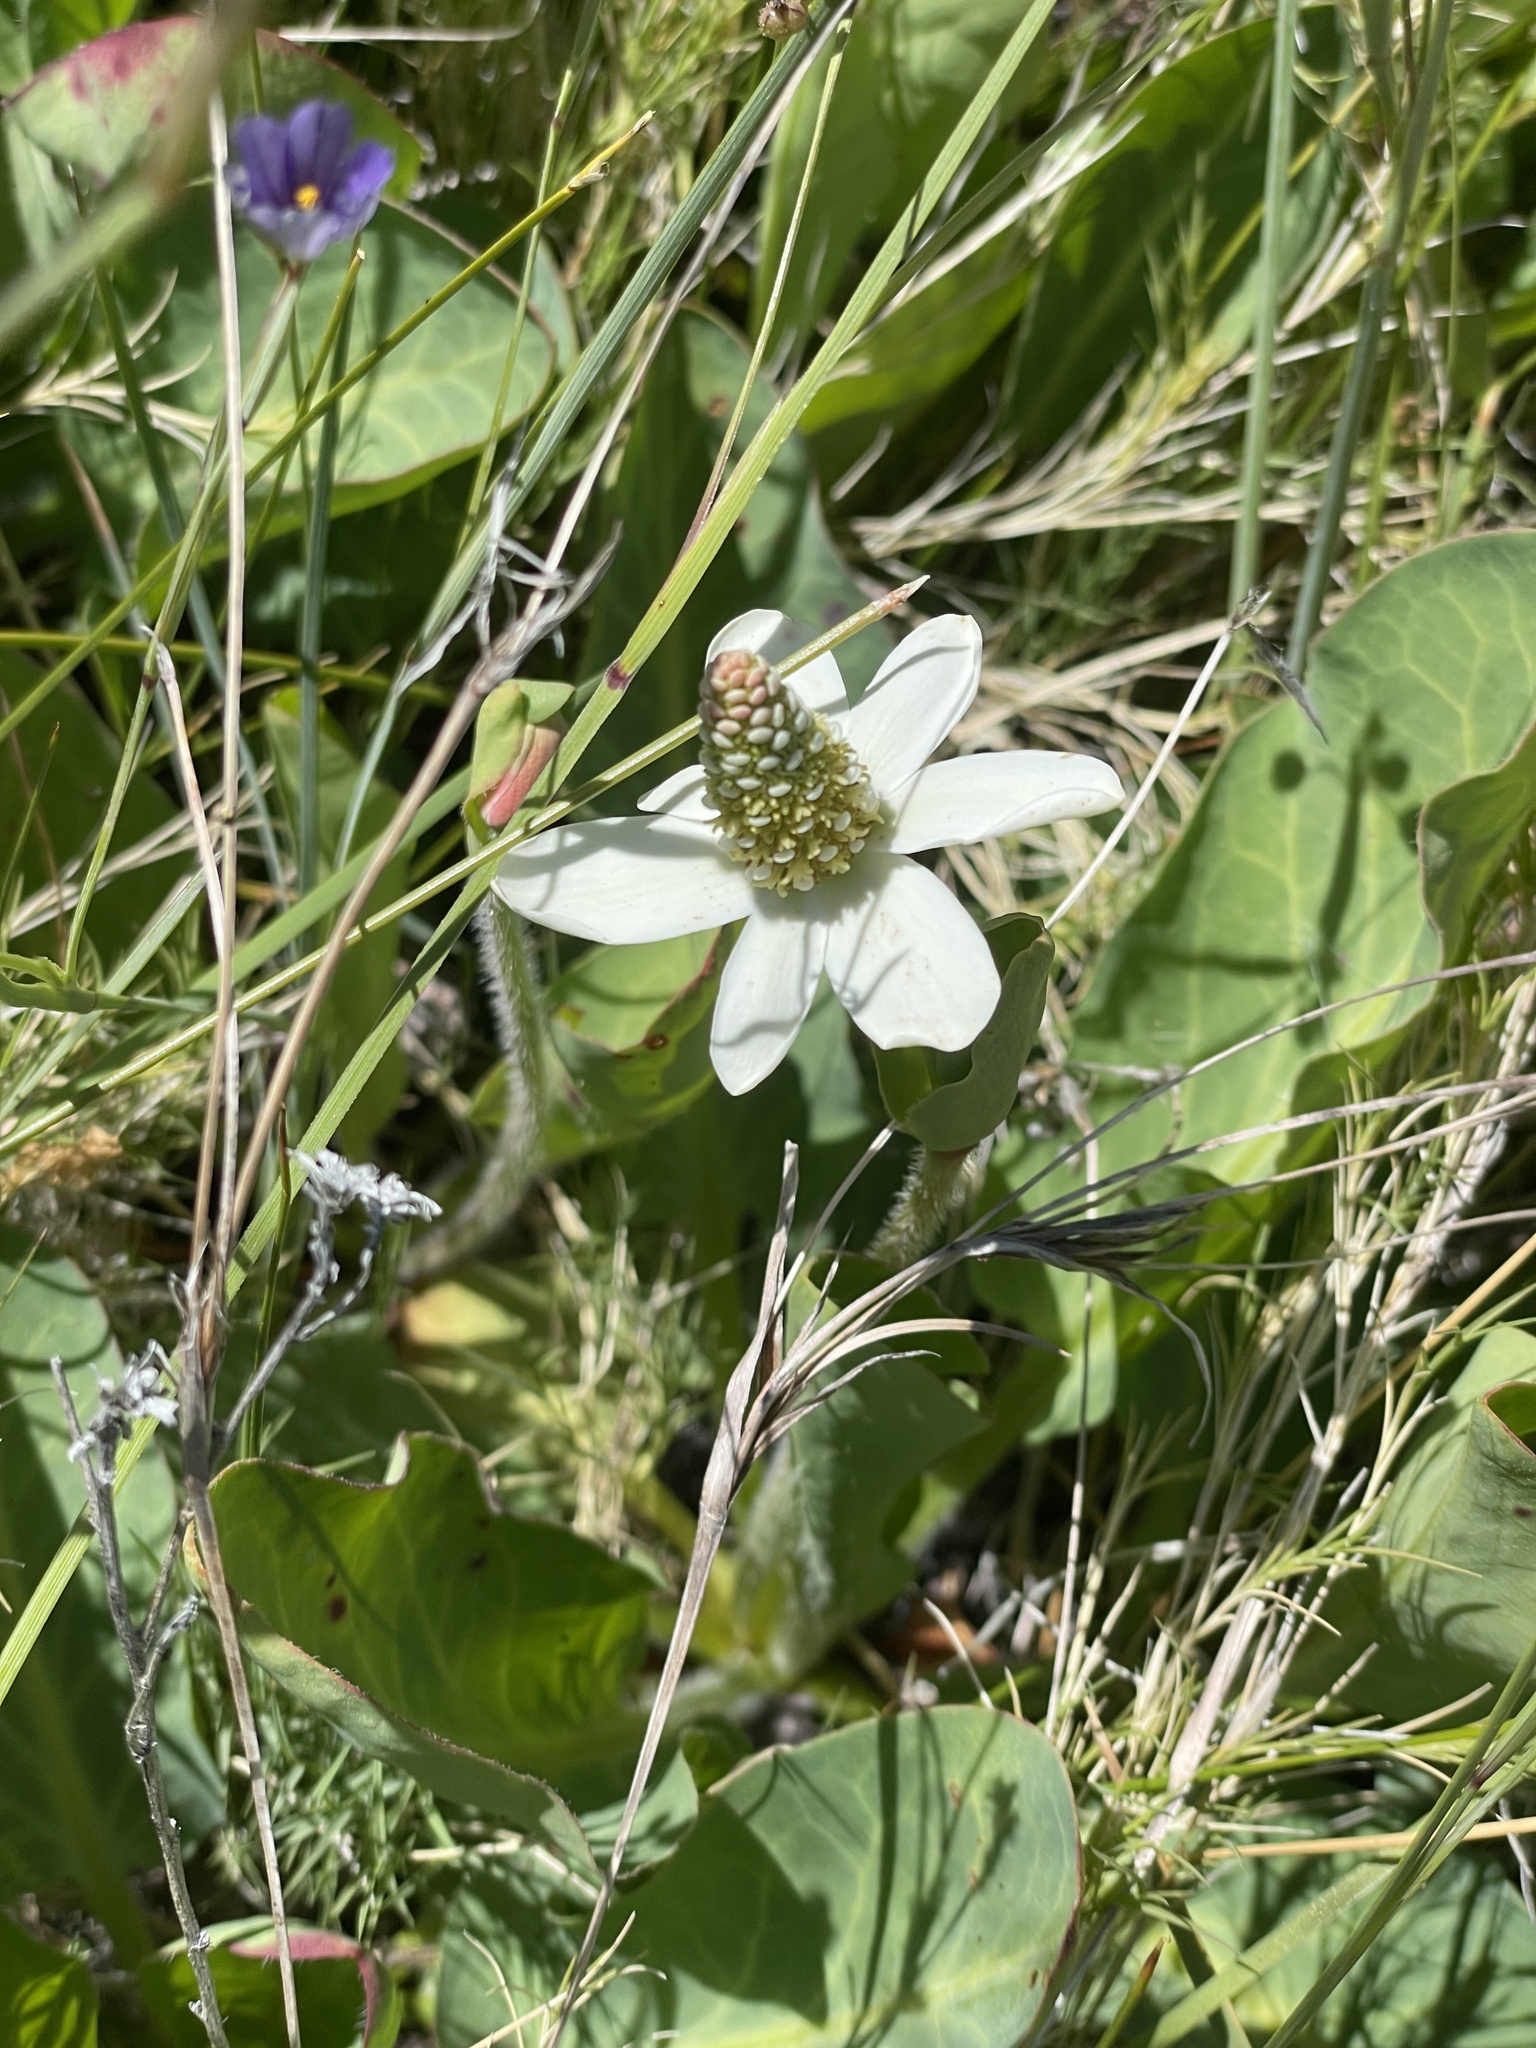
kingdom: Plantae
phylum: Tracheophyta
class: Magnoliopsida
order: Piperales
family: Saururaceae
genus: Anemopsis
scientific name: Anemopsis californica
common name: Apache-beads
